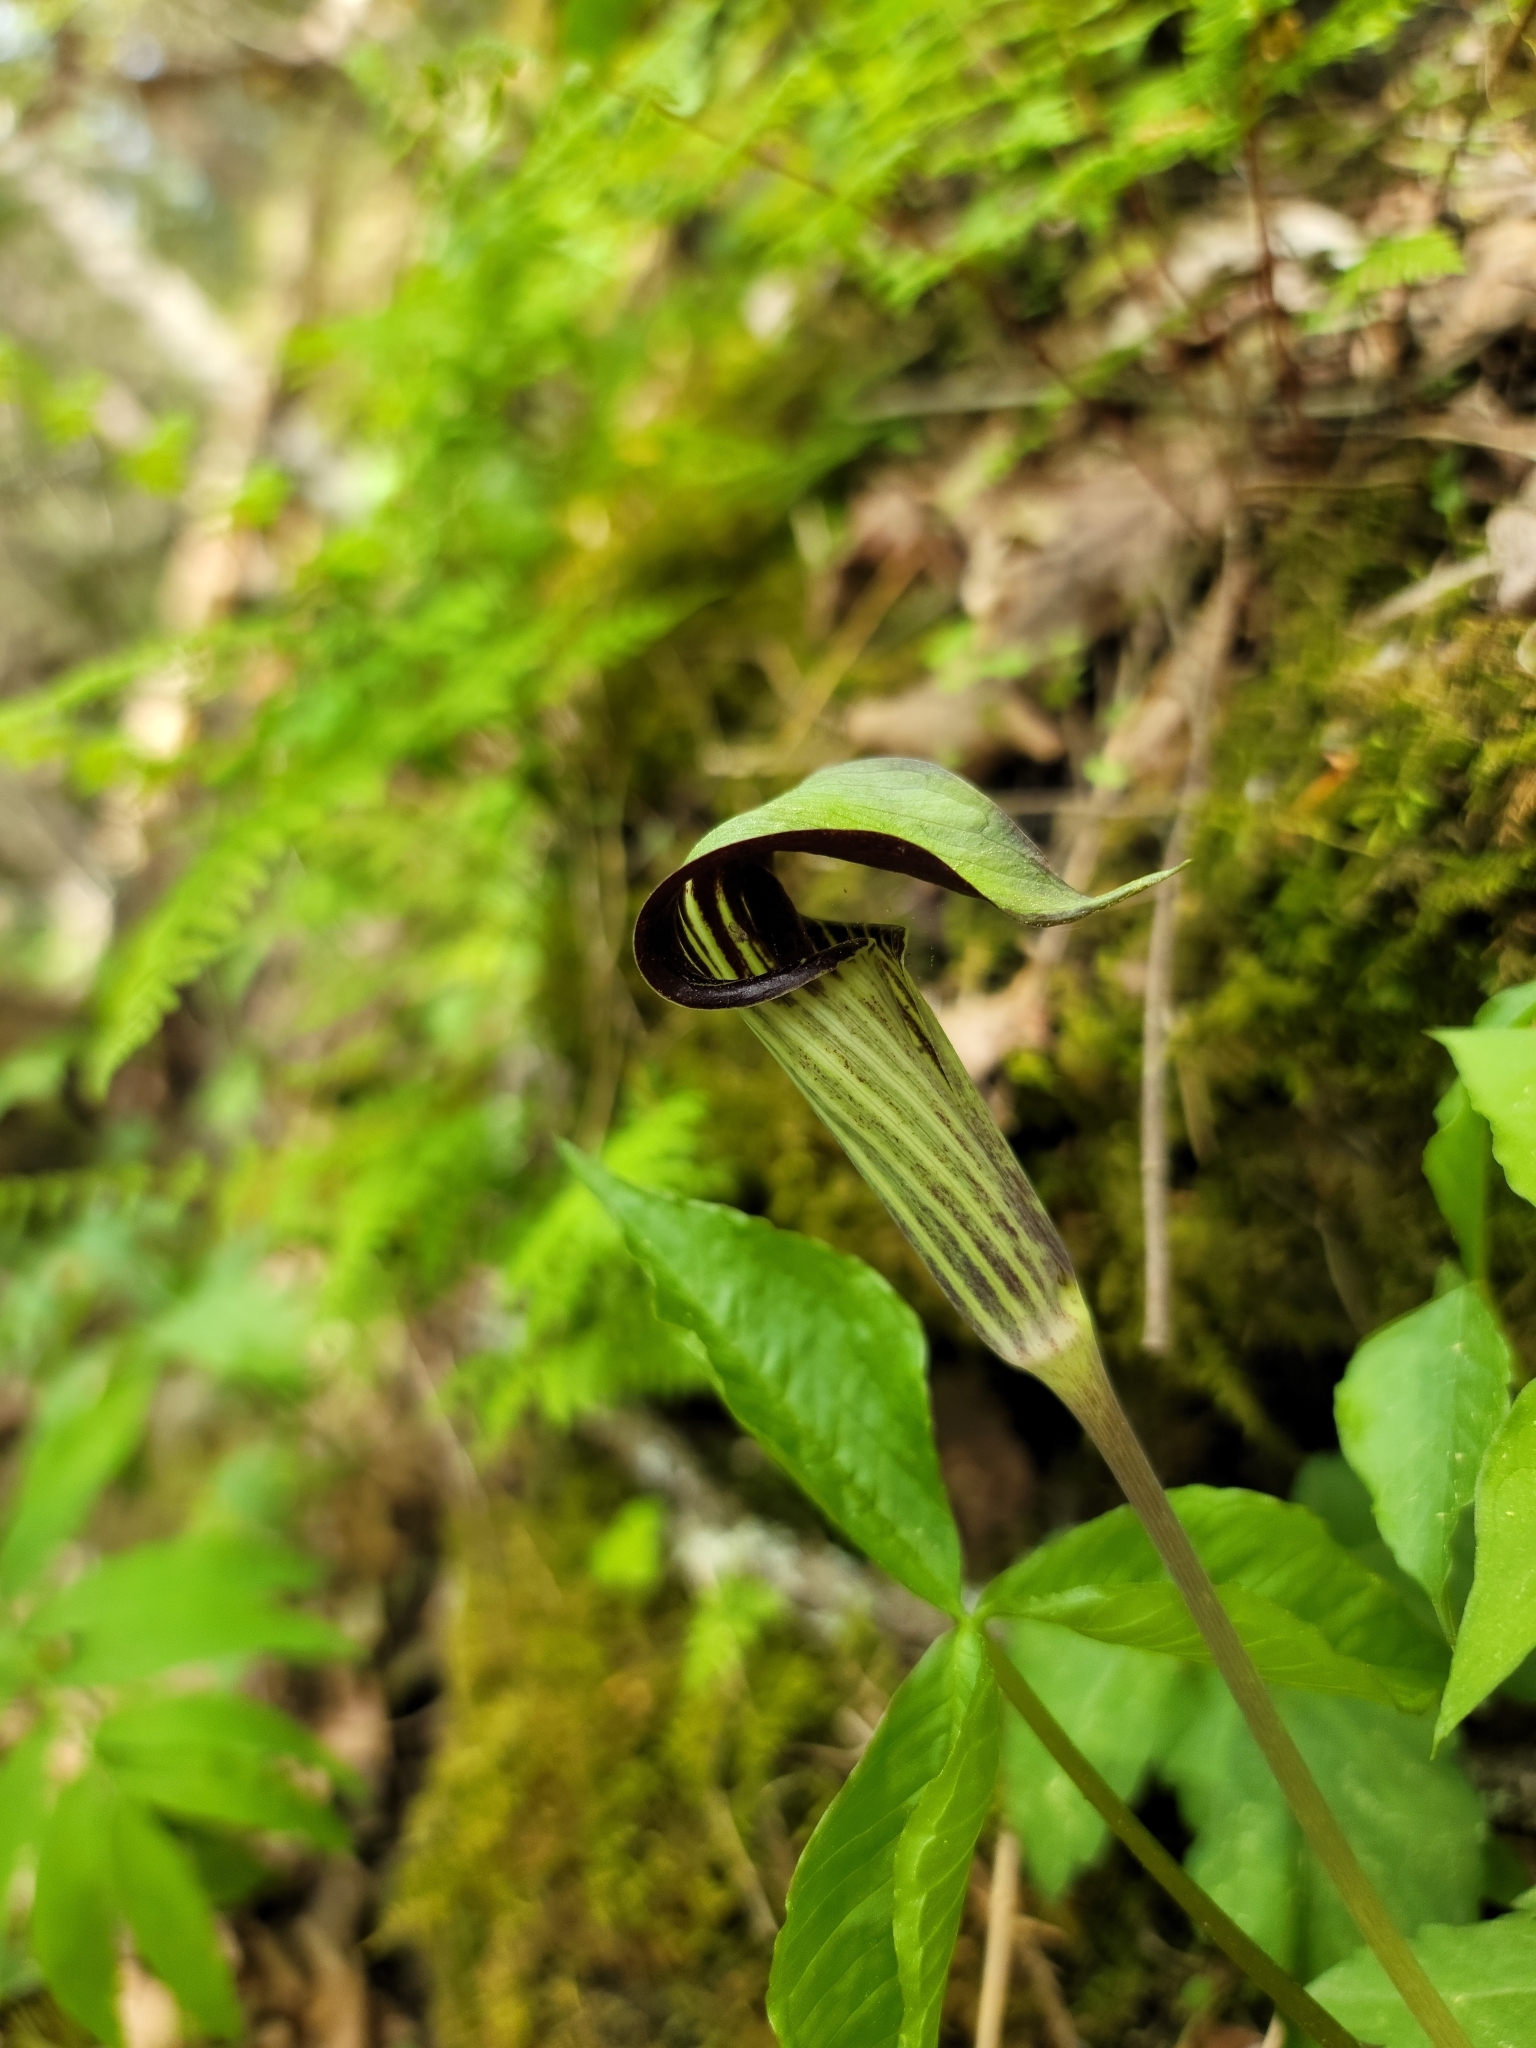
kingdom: Plantae
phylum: Tracheophyta
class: Liliopsida
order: Alismatales
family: Araceae
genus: Arisaema
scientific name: Arisaema triphyllum
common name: Jack-in-the-pulpit
